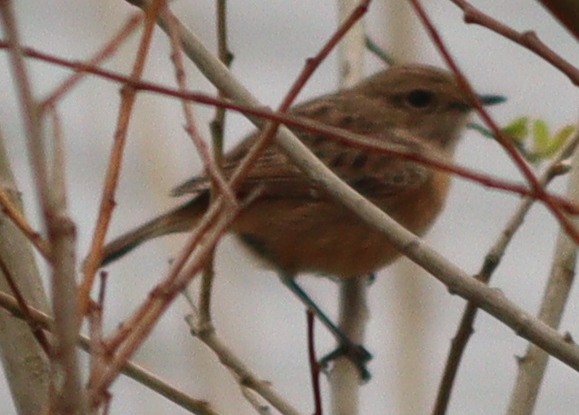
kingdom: Animalia
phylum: Chordata
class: Aves
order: Passeriformes
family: Muscicapidae
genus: Saxicola
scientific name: Saxicola rubicola
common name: European stonechat
